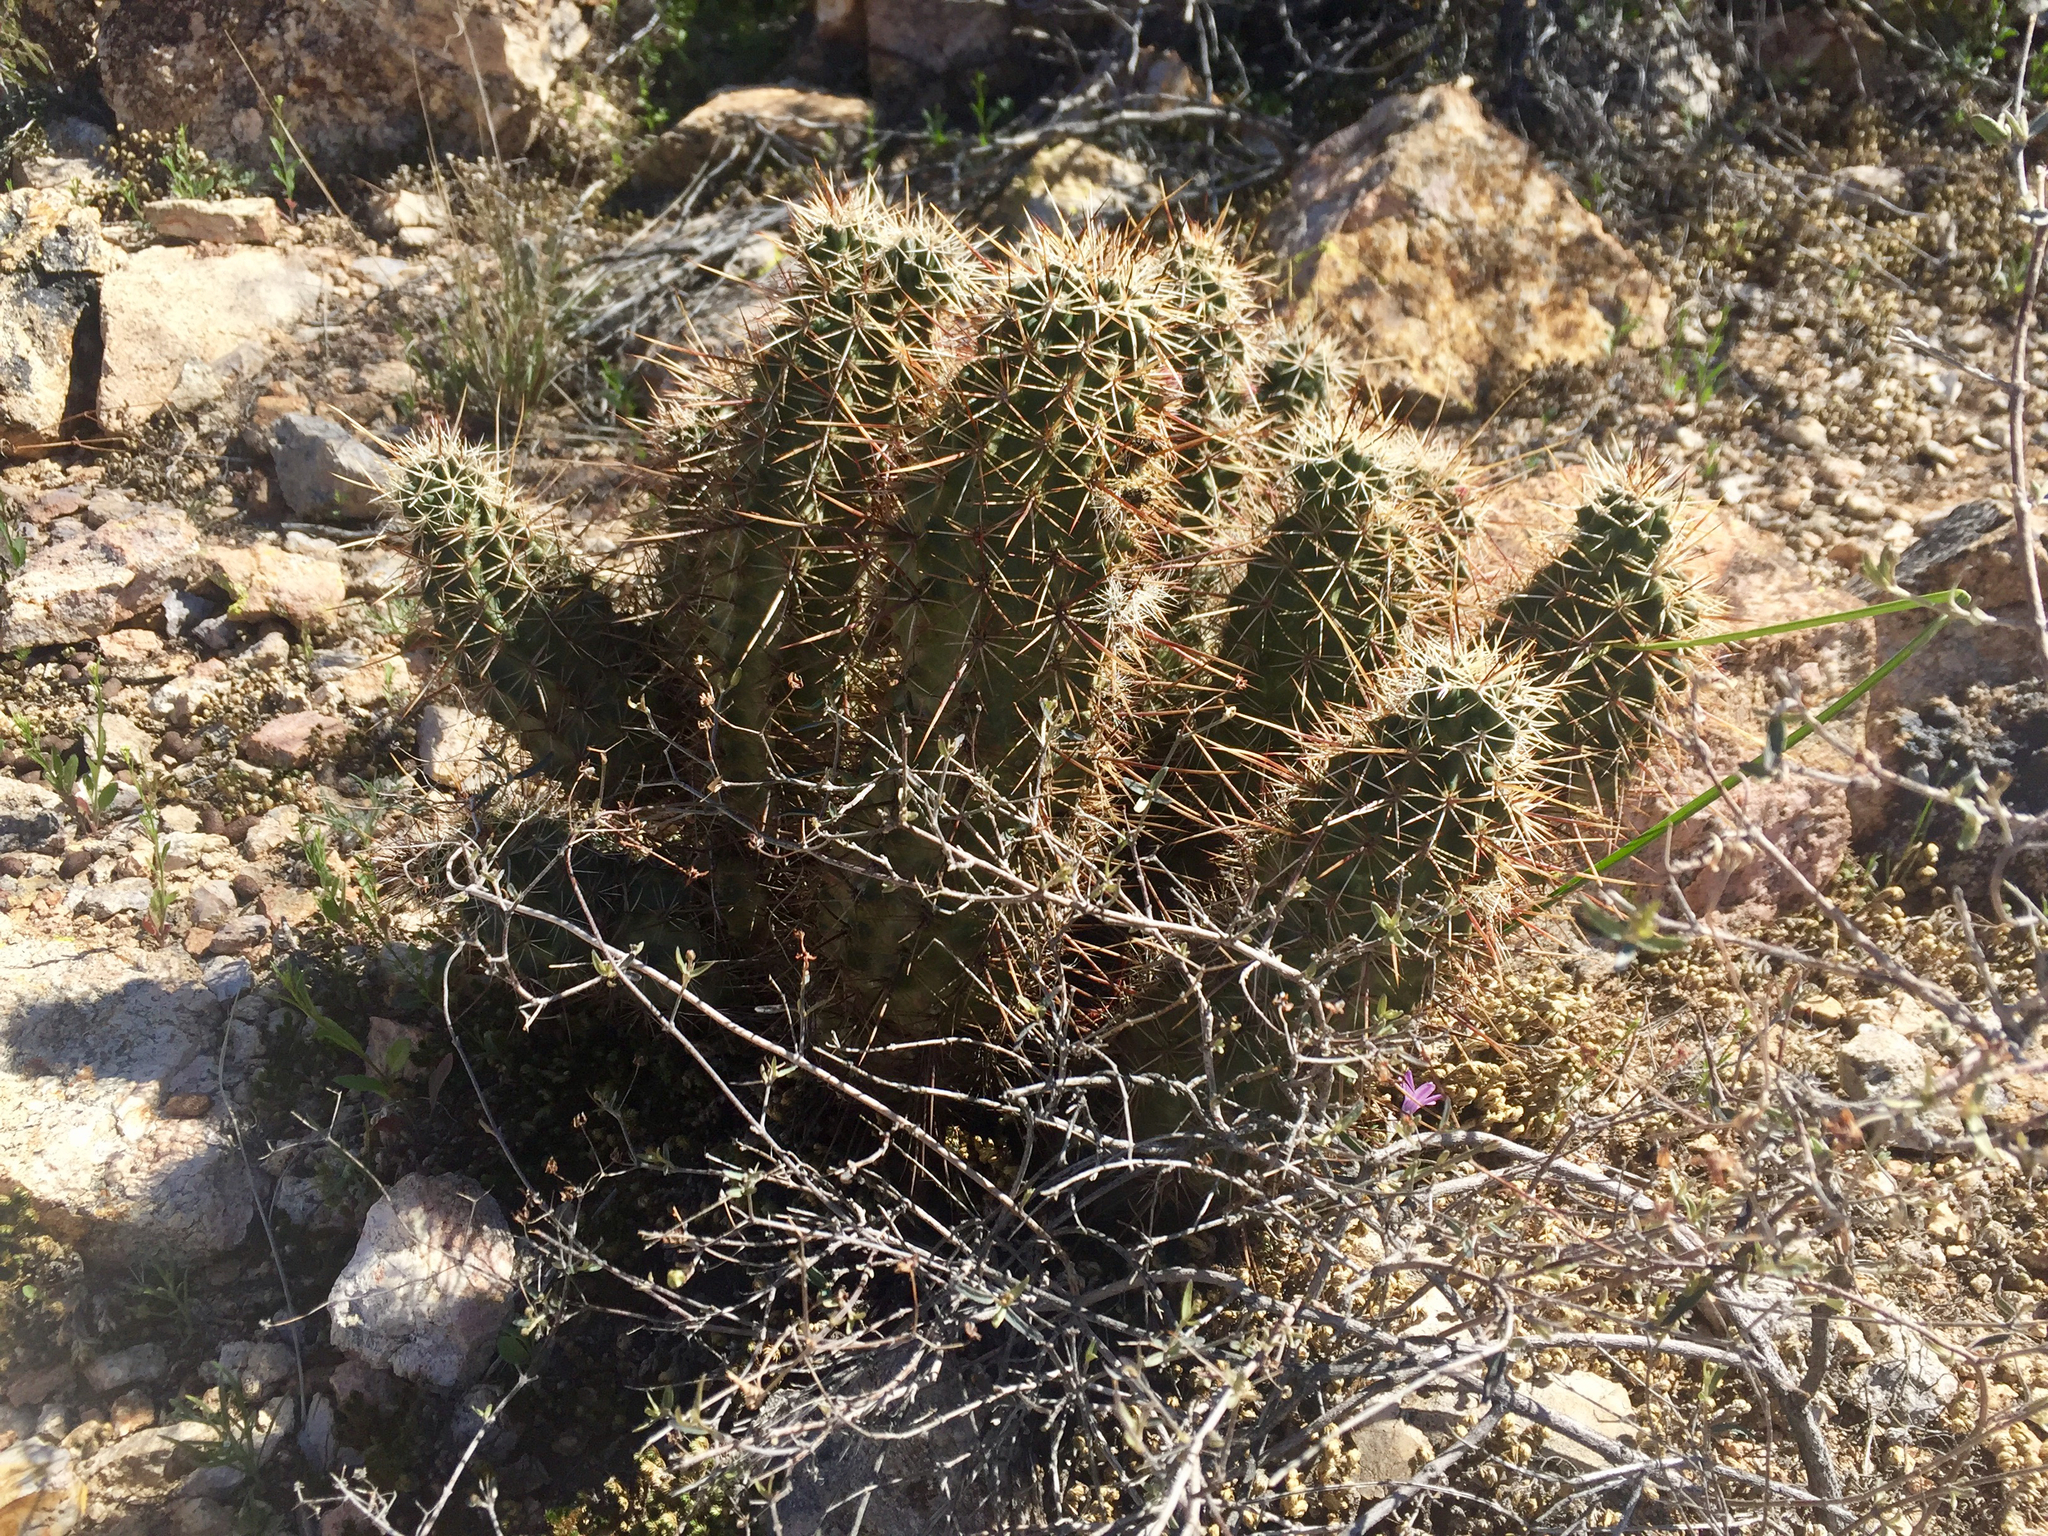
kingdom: Plantae
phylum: Tracheophyta
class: Magnoliopsida
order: Caryophyllales
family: Cactaceae
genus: Echinocereus
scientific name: Echinocereus fasciculatus
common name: Bundle hedgehog
